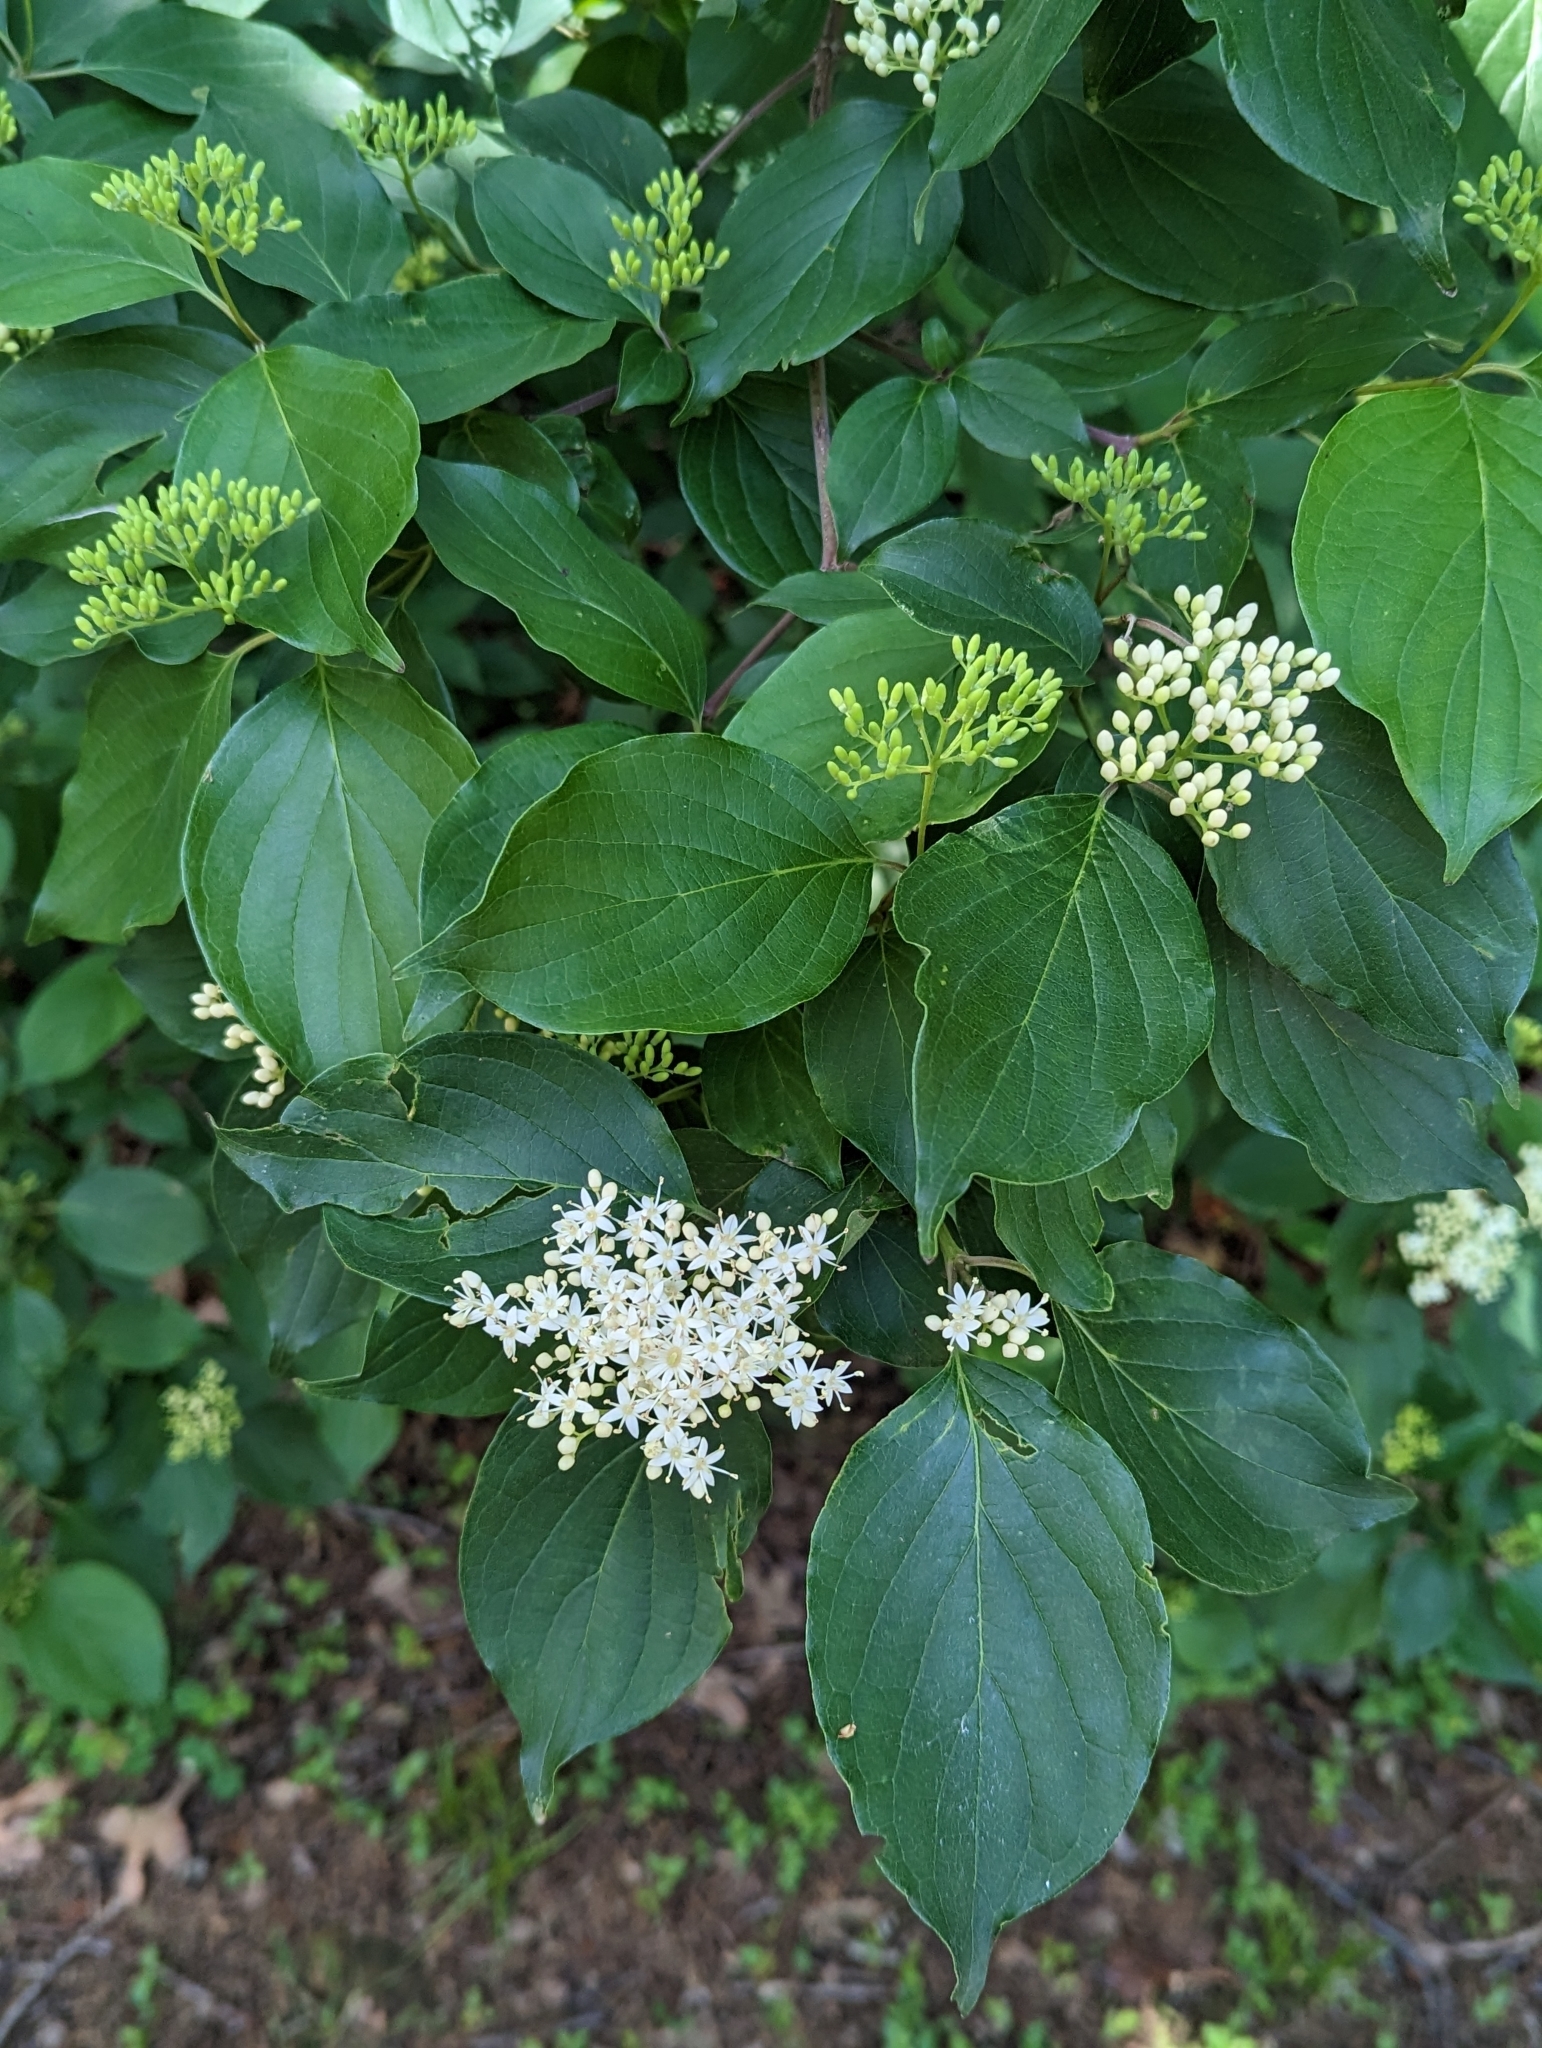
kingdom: Plantae
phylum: Tracheophyta
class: Magnoliopsida
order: Cornales
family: Cornaceae
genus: Cornus
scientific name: Cornus drummondii
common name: Rough-leaf dogwood
